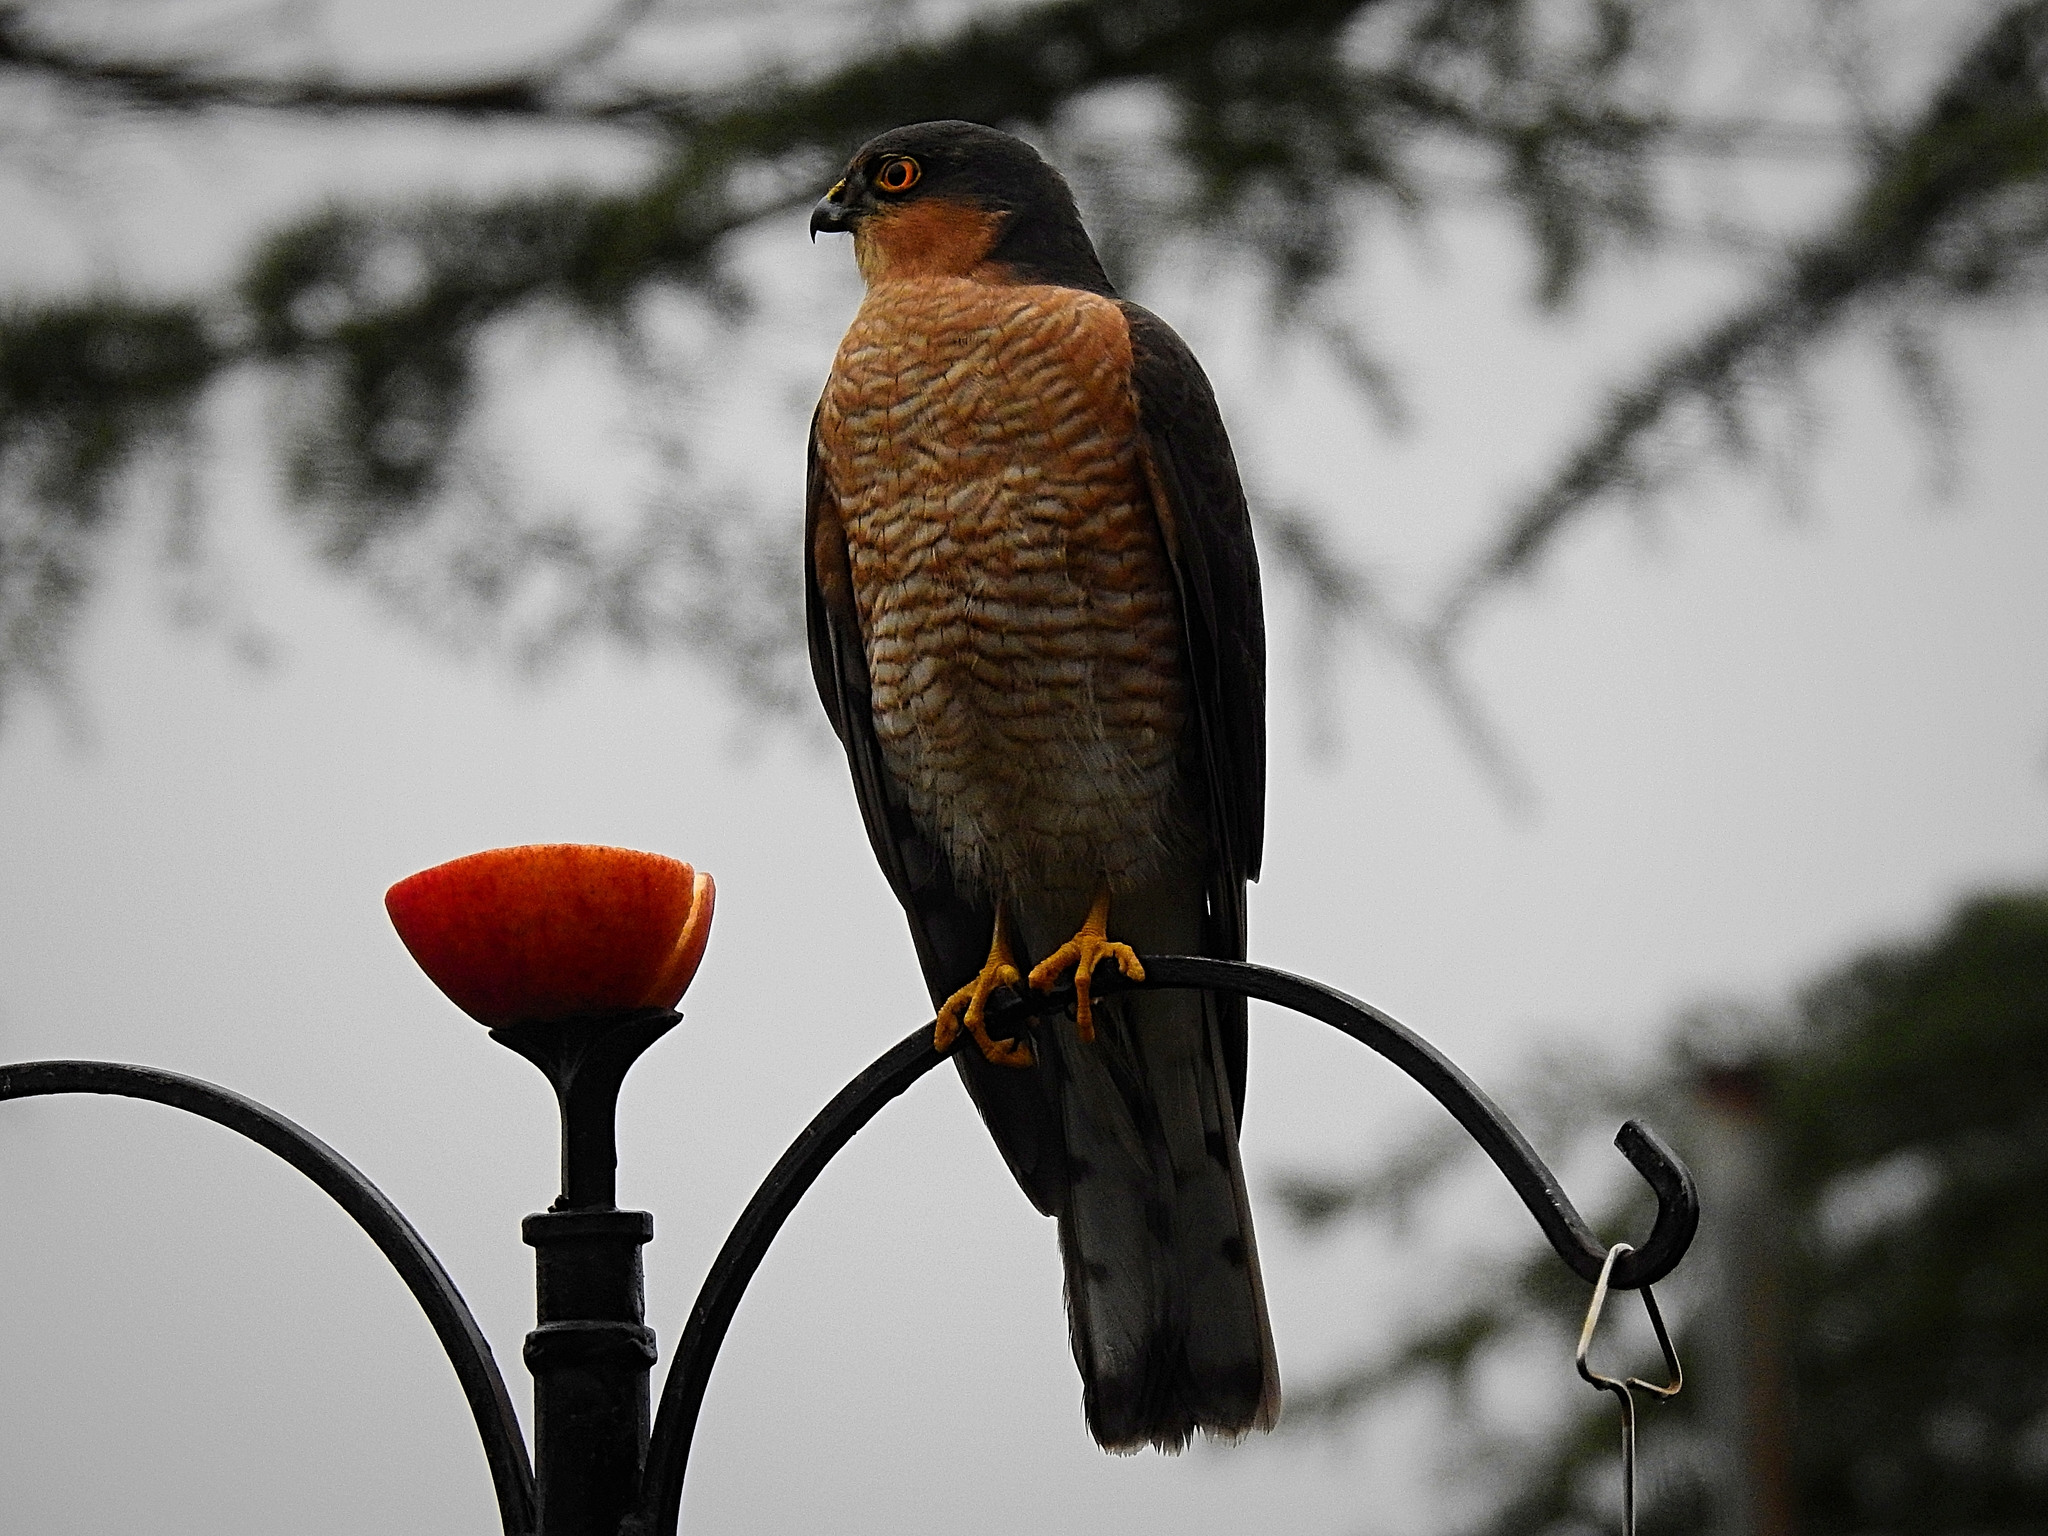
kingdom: Animalia
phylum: Chordata
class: Aves
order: Accipitriformes
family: Accipitridae
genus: Accipiter
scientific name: Accipiter nisus
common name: Eurasian sparrowhawk
